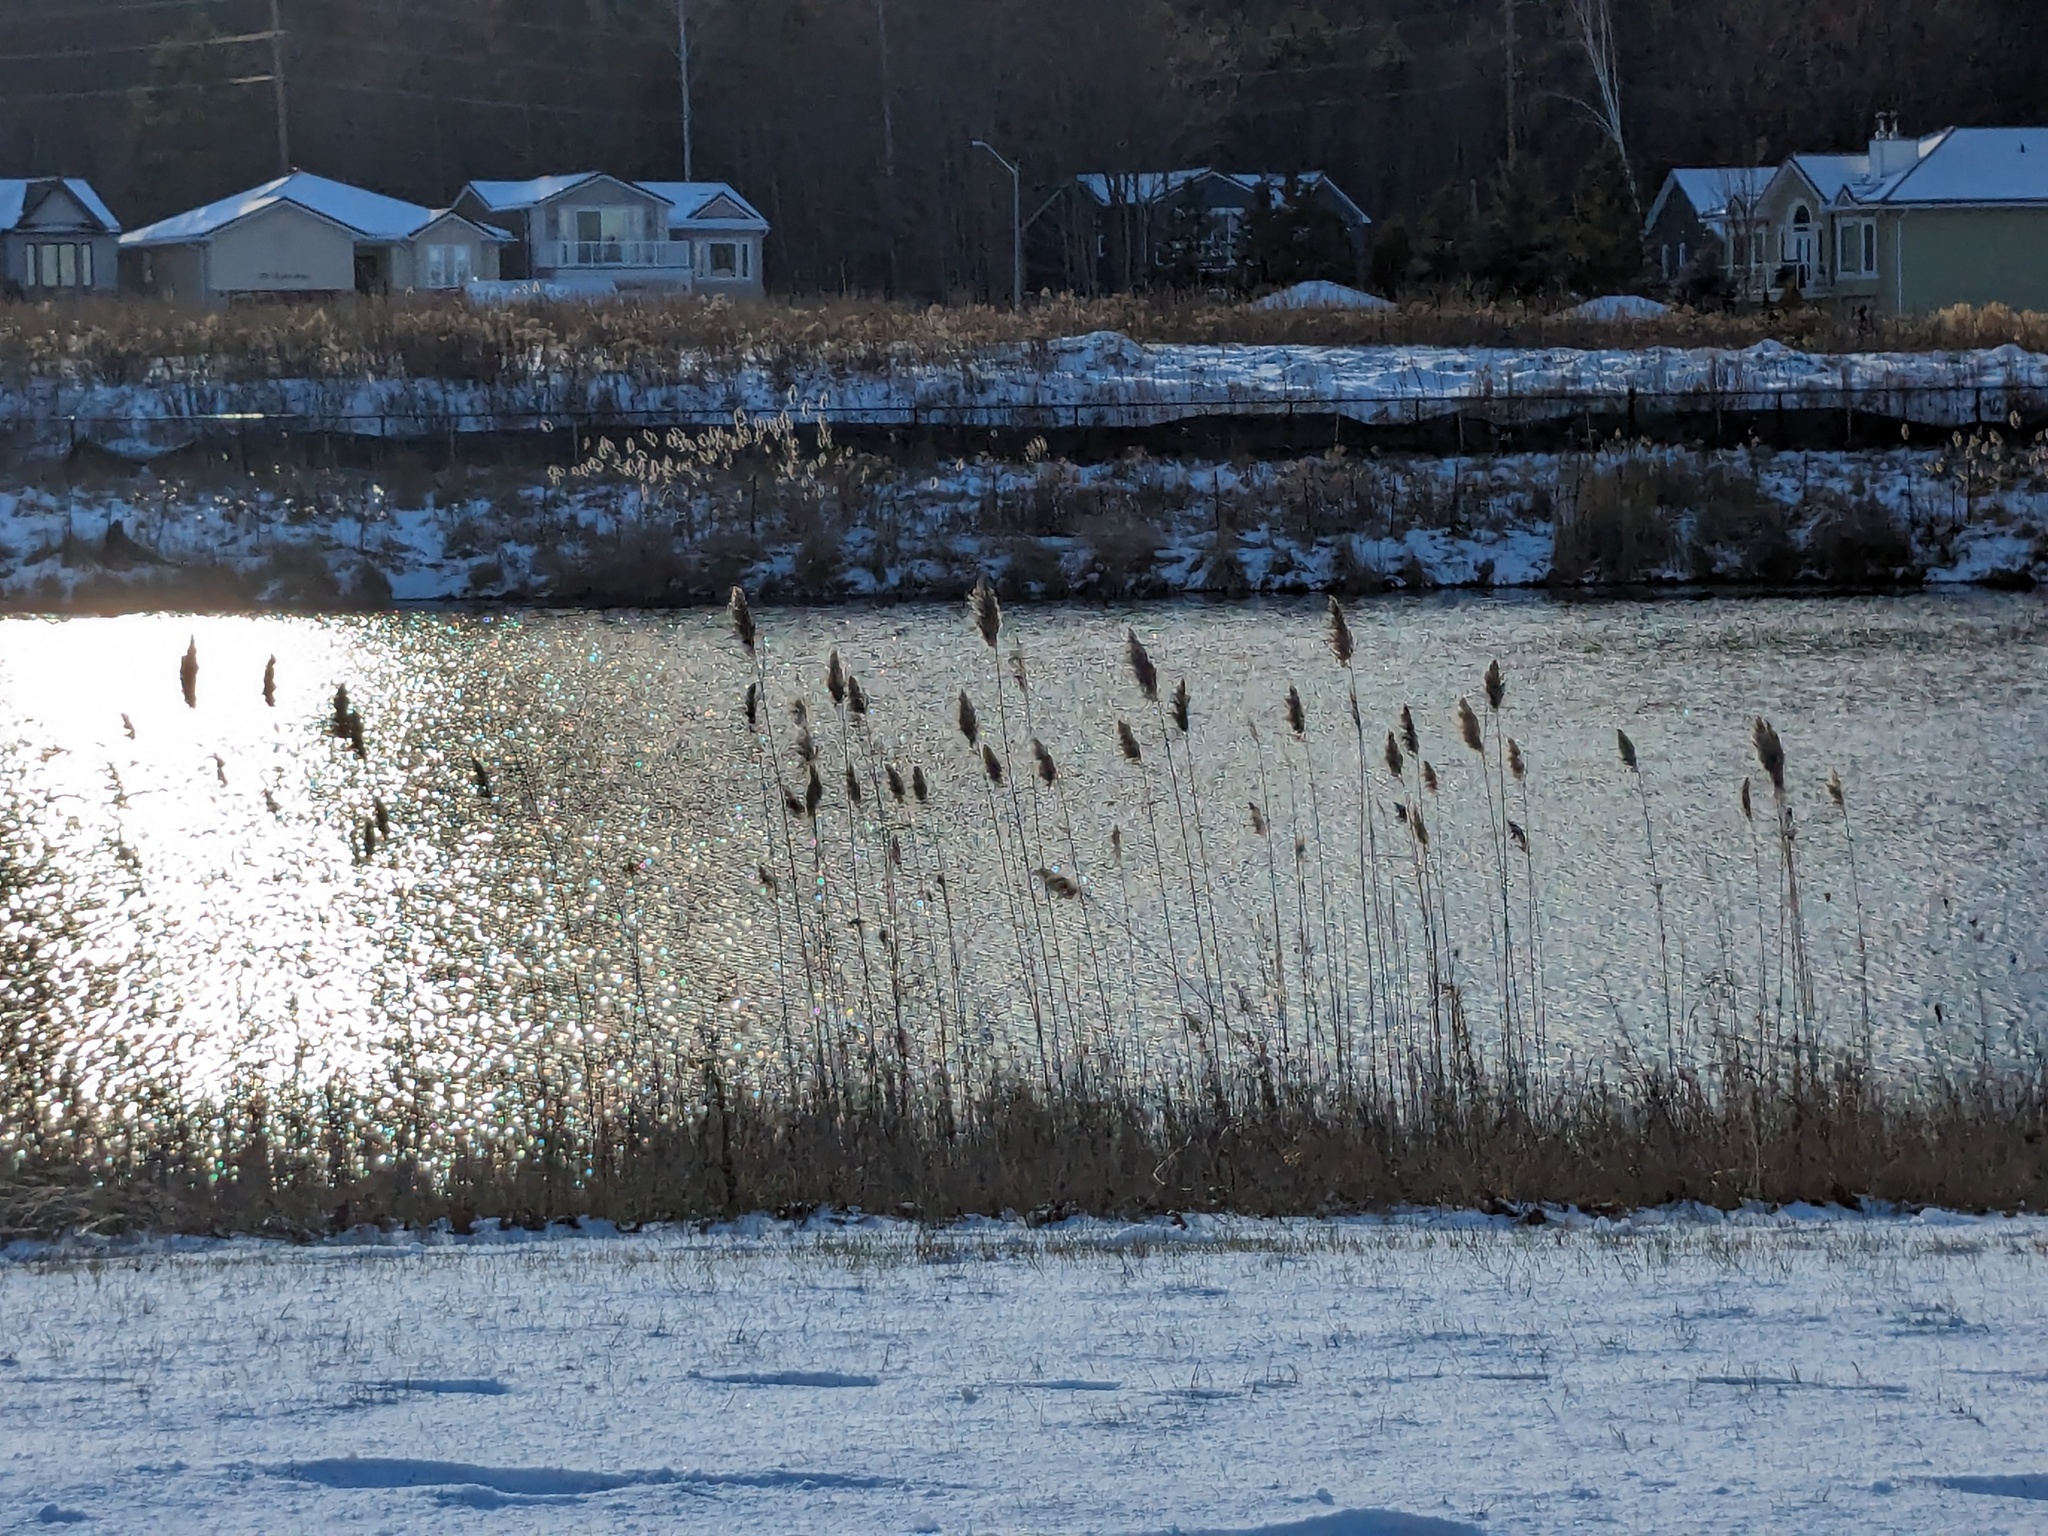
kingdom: Plantae
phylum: Tracheophyta
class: Liliopsida
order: Poales
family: Poaceae
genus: Phragmites
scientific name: Phragmites australis
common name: Common reed
